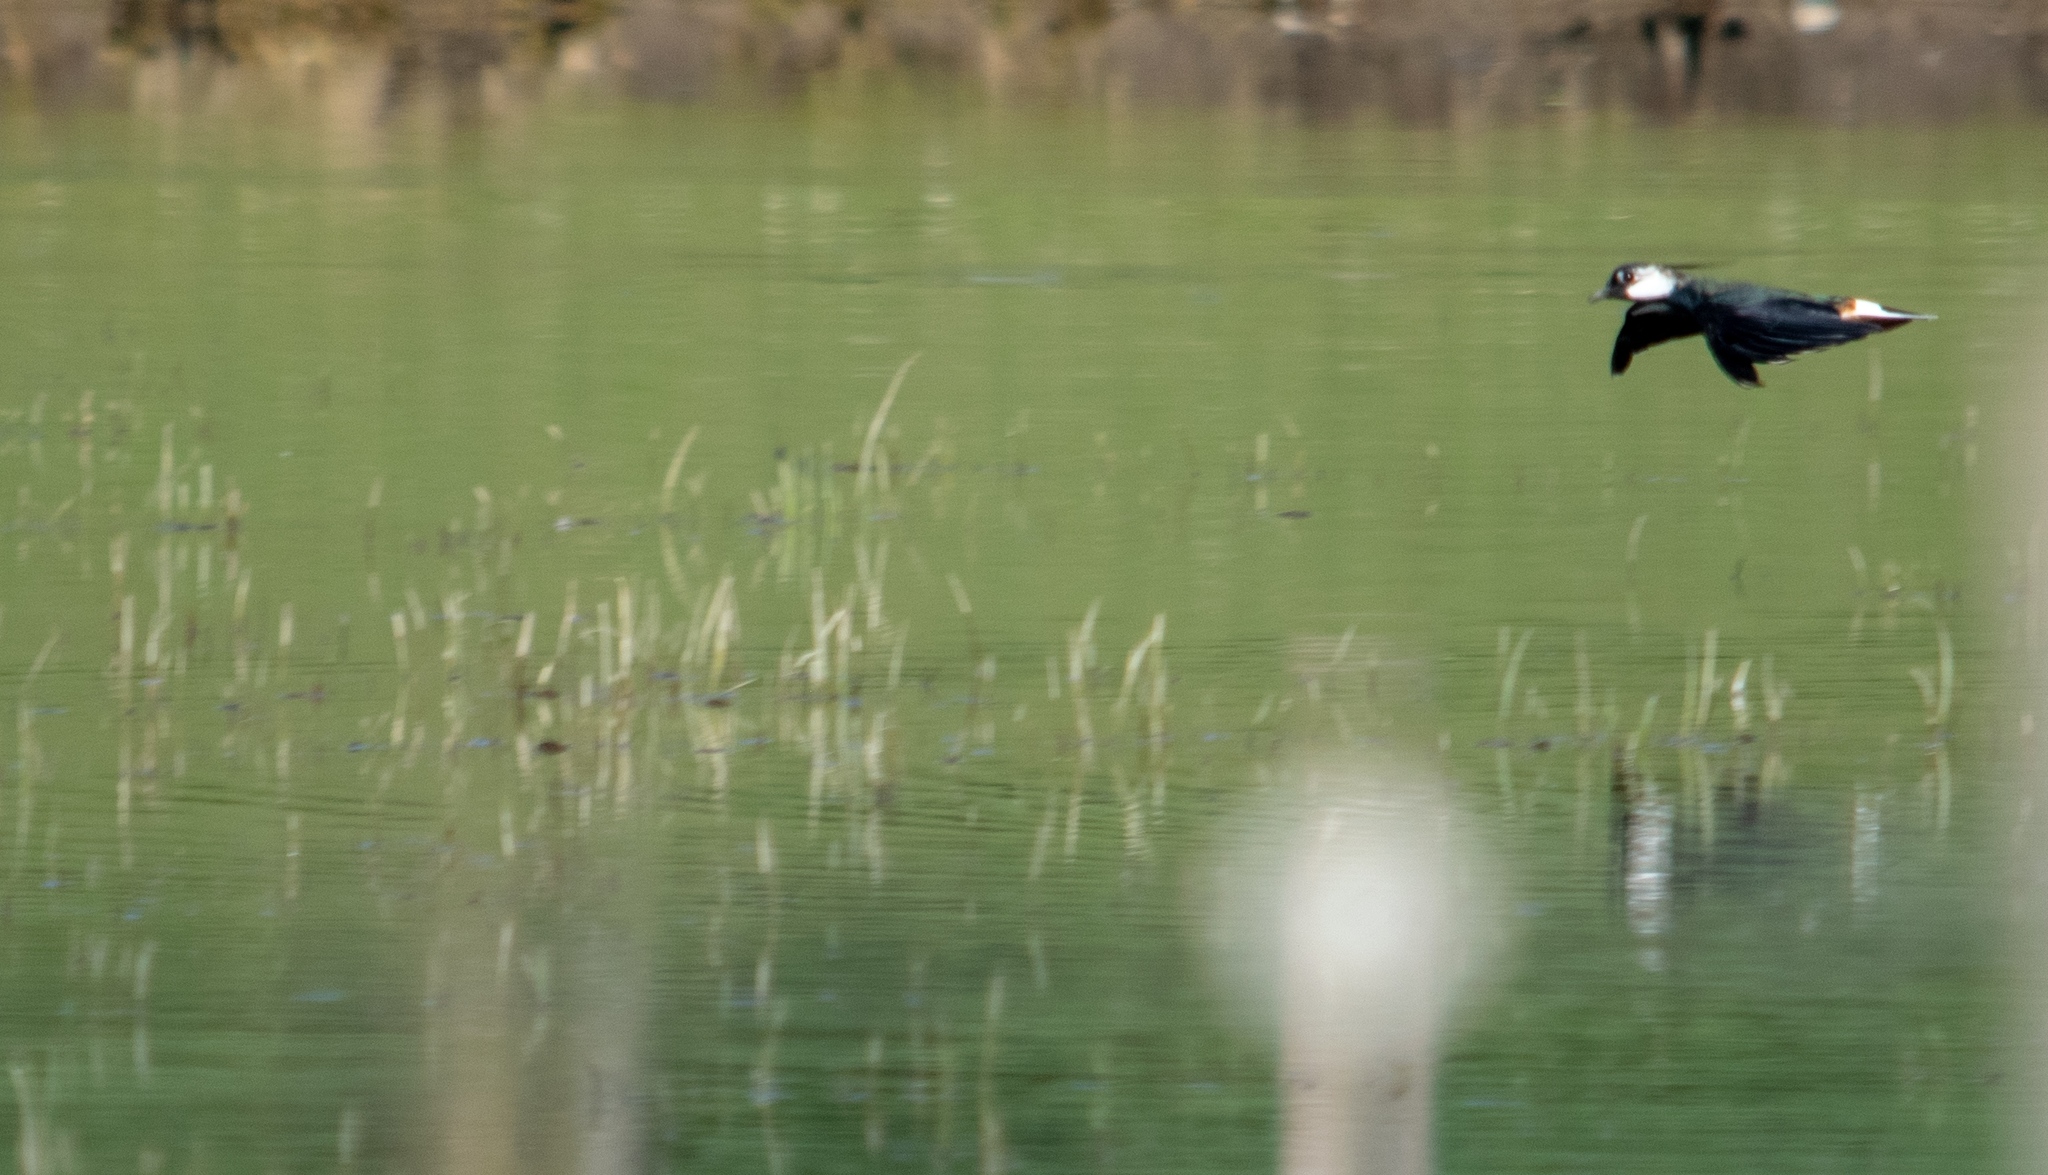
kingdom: Animalia
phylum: Chordata
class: Aves
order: Charadriiformes
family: Charadriidae
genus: Vanellus
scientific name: Vanellus vanellus
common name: Northern lapwing
